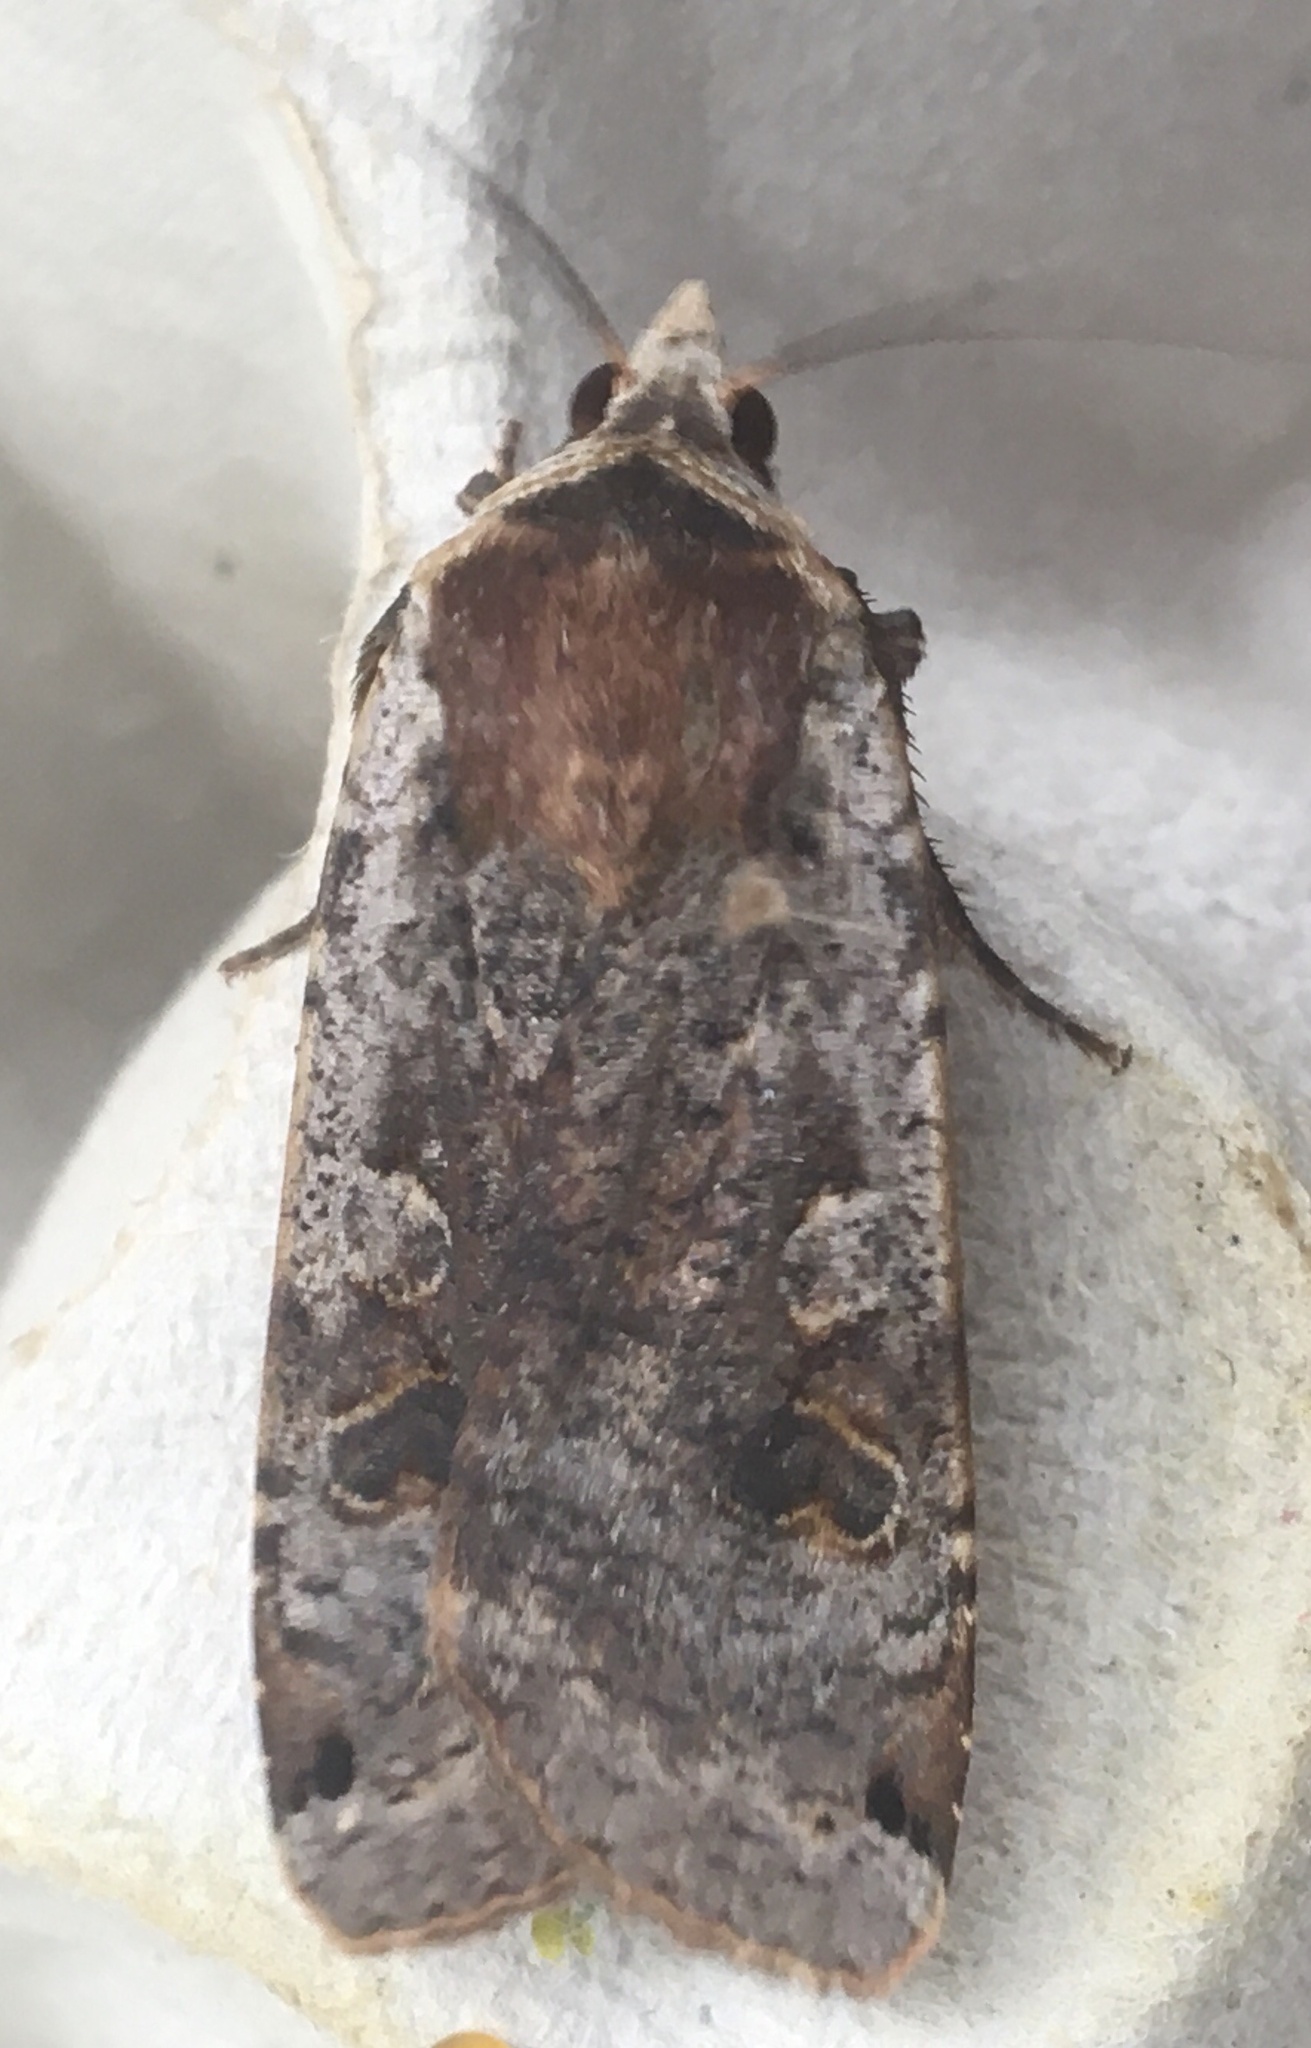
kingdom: Animalia
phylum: Arthropoda
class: Insecta
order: Lepidoptera
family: Noctuidae
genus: Noctua
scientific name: Noctua pronuba
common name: Large yellow underwing
